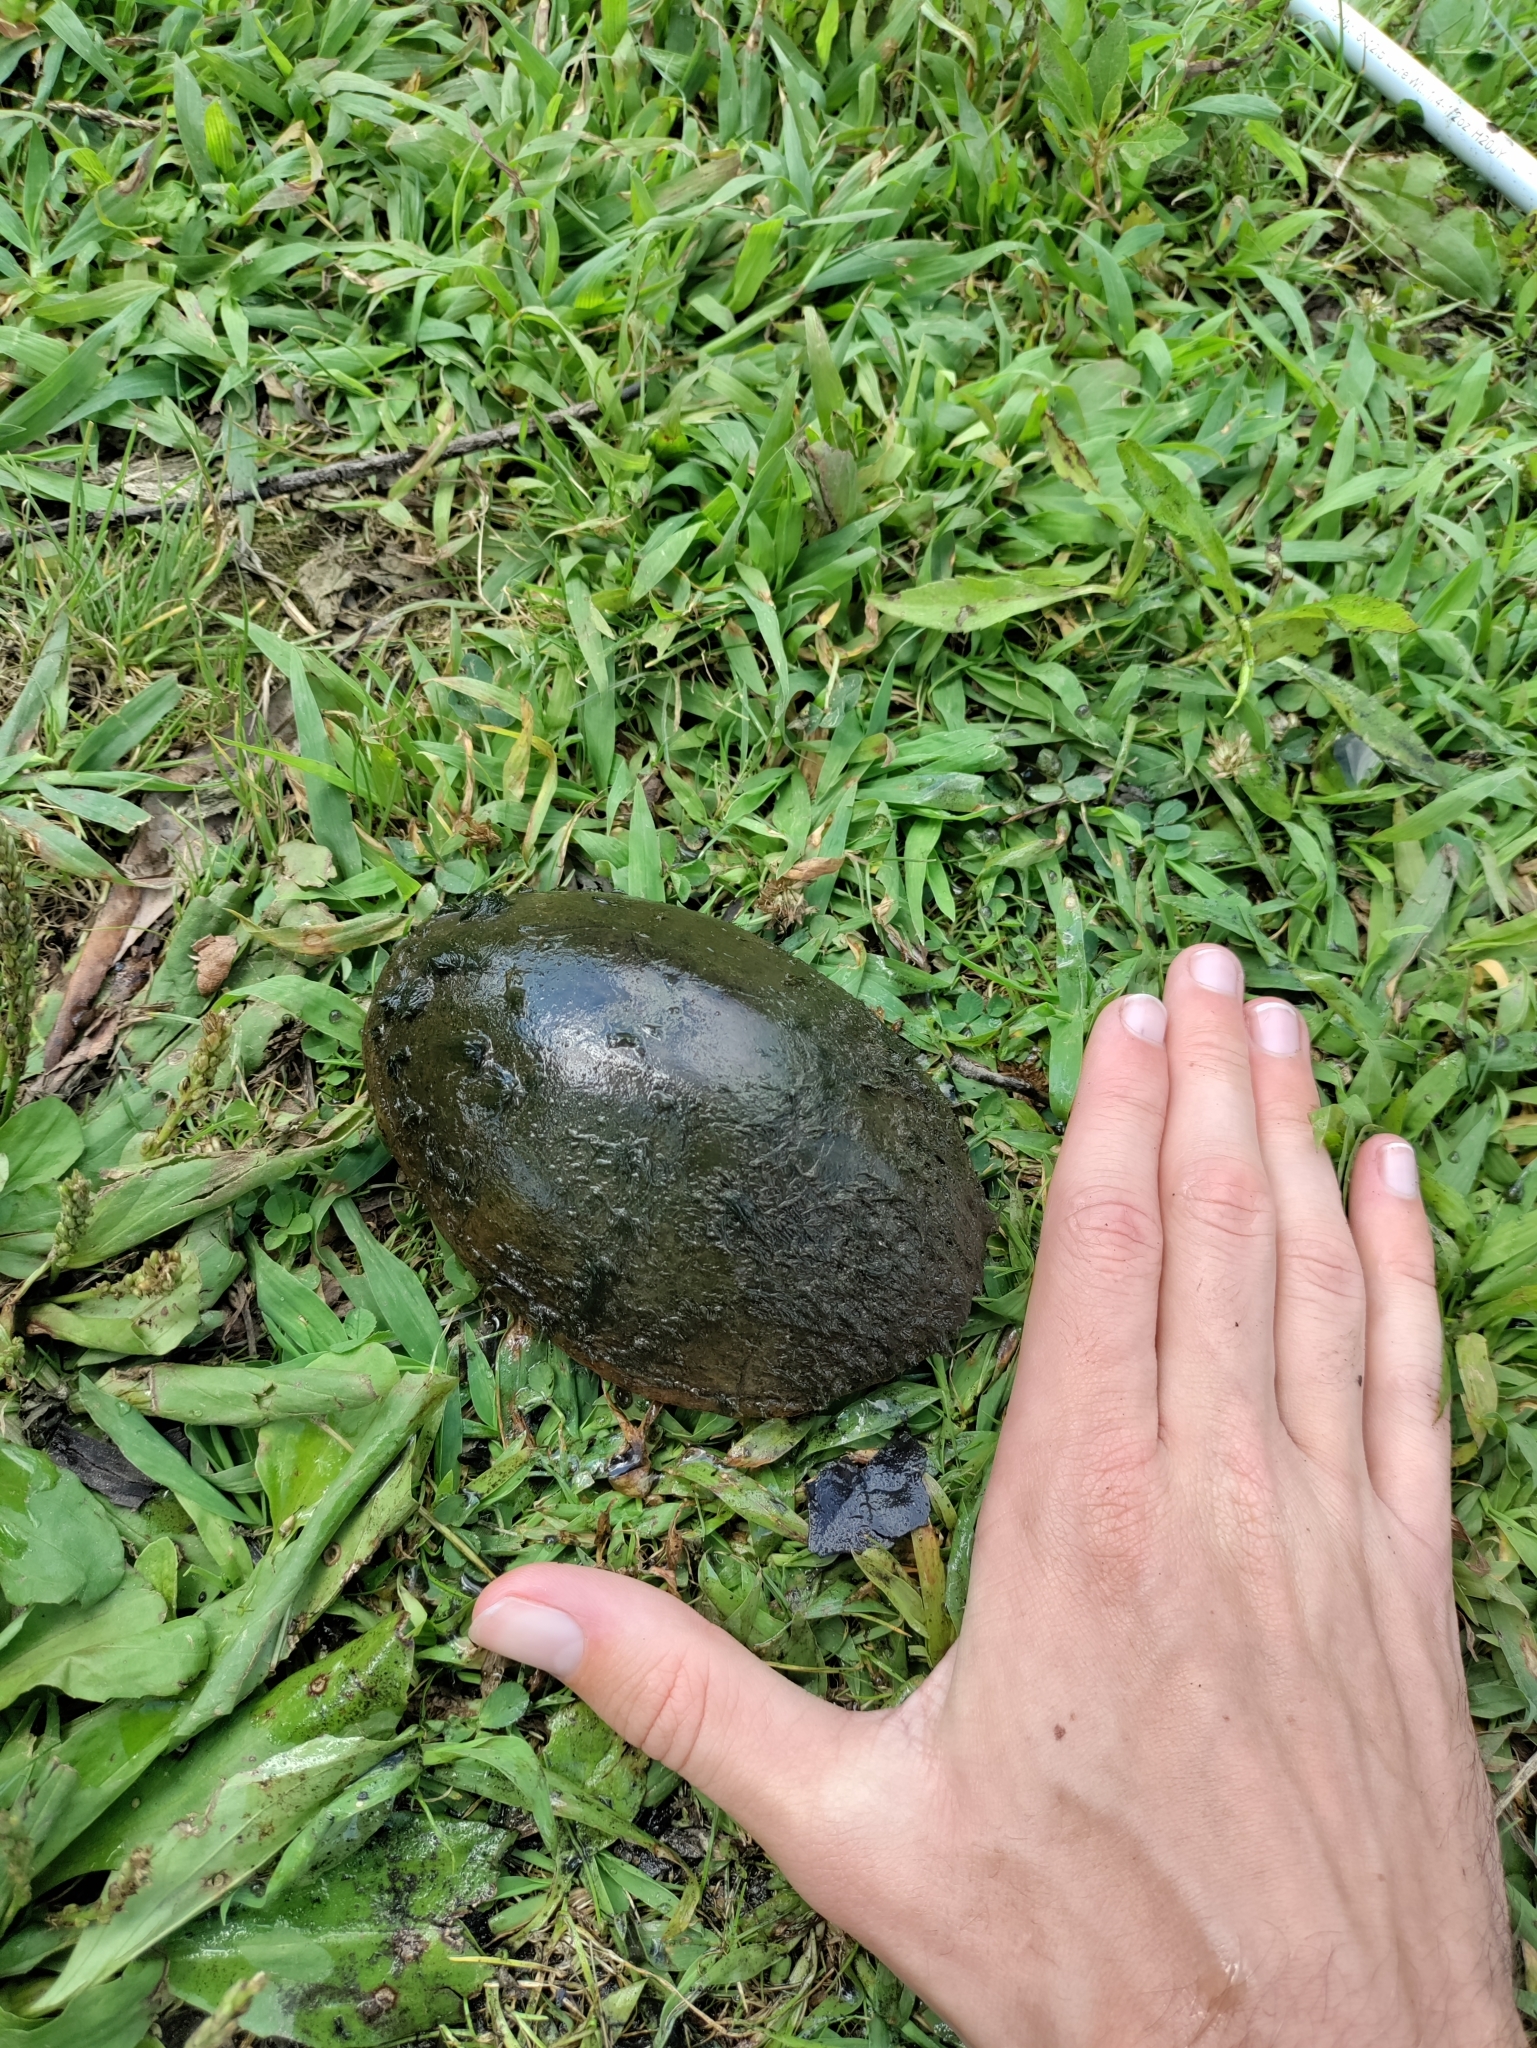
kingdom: Animalia
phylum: Chordata
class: Testudines
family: Kinosternidae
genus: Sternotherus
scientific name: Sternotherus odoratus
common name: Common musk turtle
